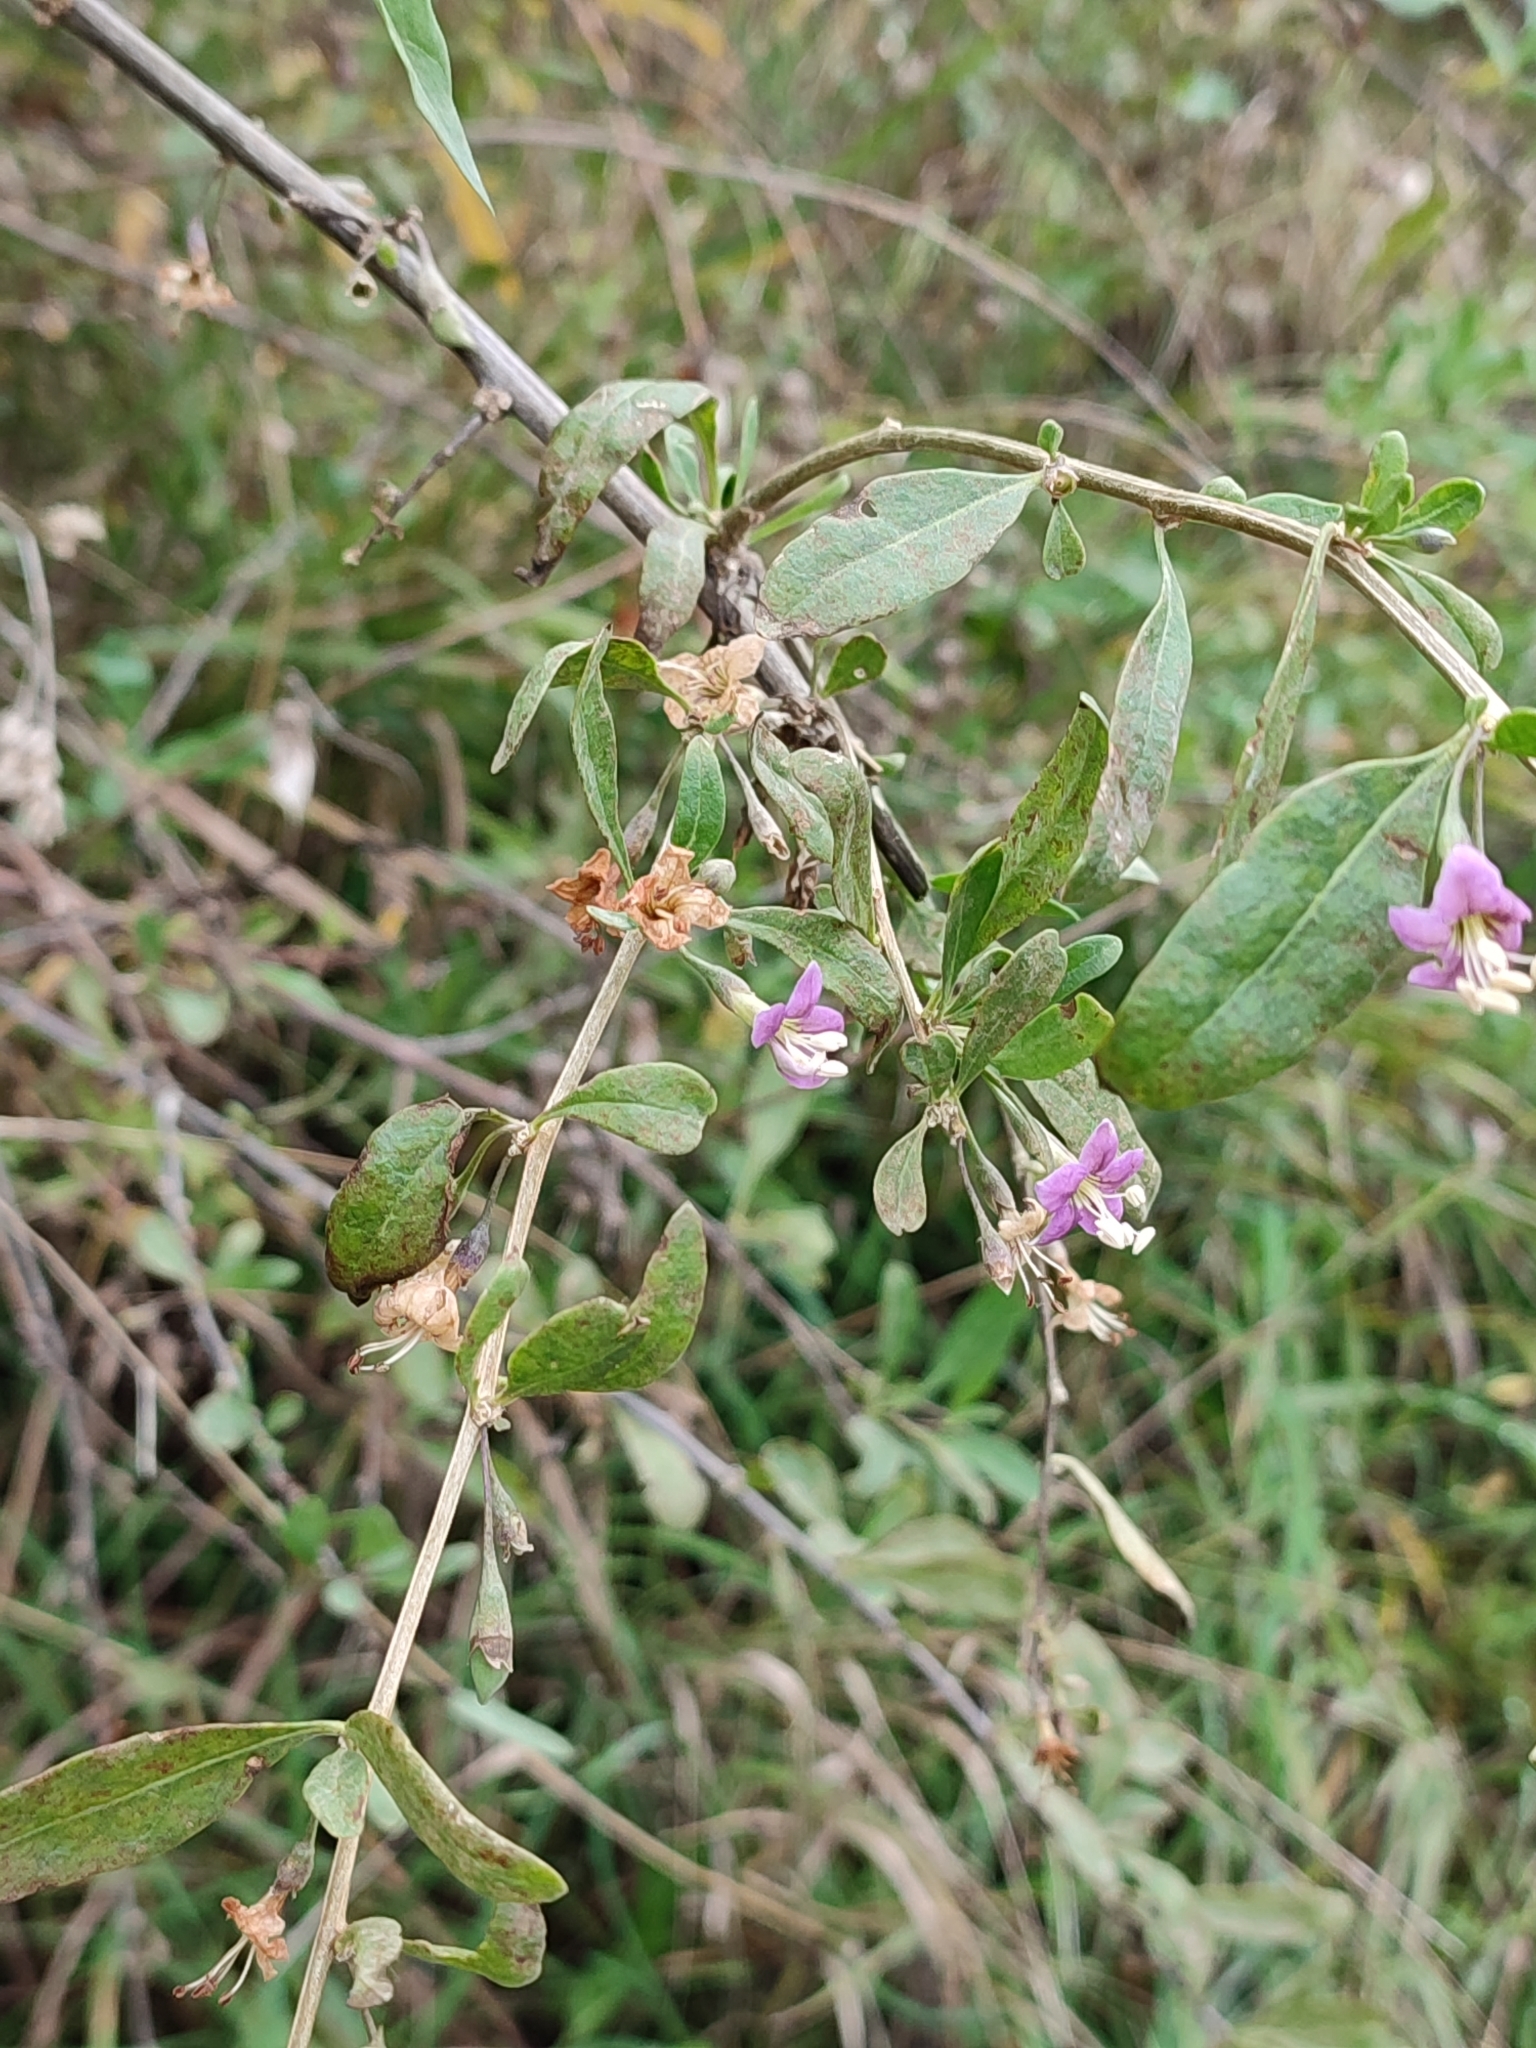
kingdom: Plantae
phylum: Tracheophyta
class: Magnoliopsida
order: Solanales
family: Solanaceae
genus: Lycium
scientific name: Lycium barbarum
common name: Duke of argyll's teaplant
